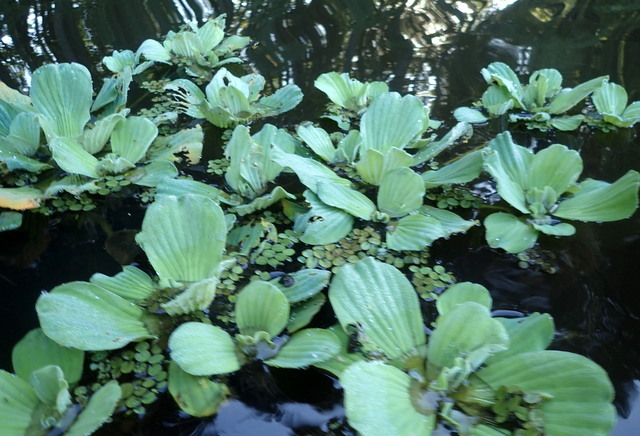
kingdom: Plantae
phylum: Tracheophyta
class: Liliopsida
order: Alismatales
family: Araceae
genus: Pistia
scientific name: Pistia stratiotes
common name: Water lettuce
